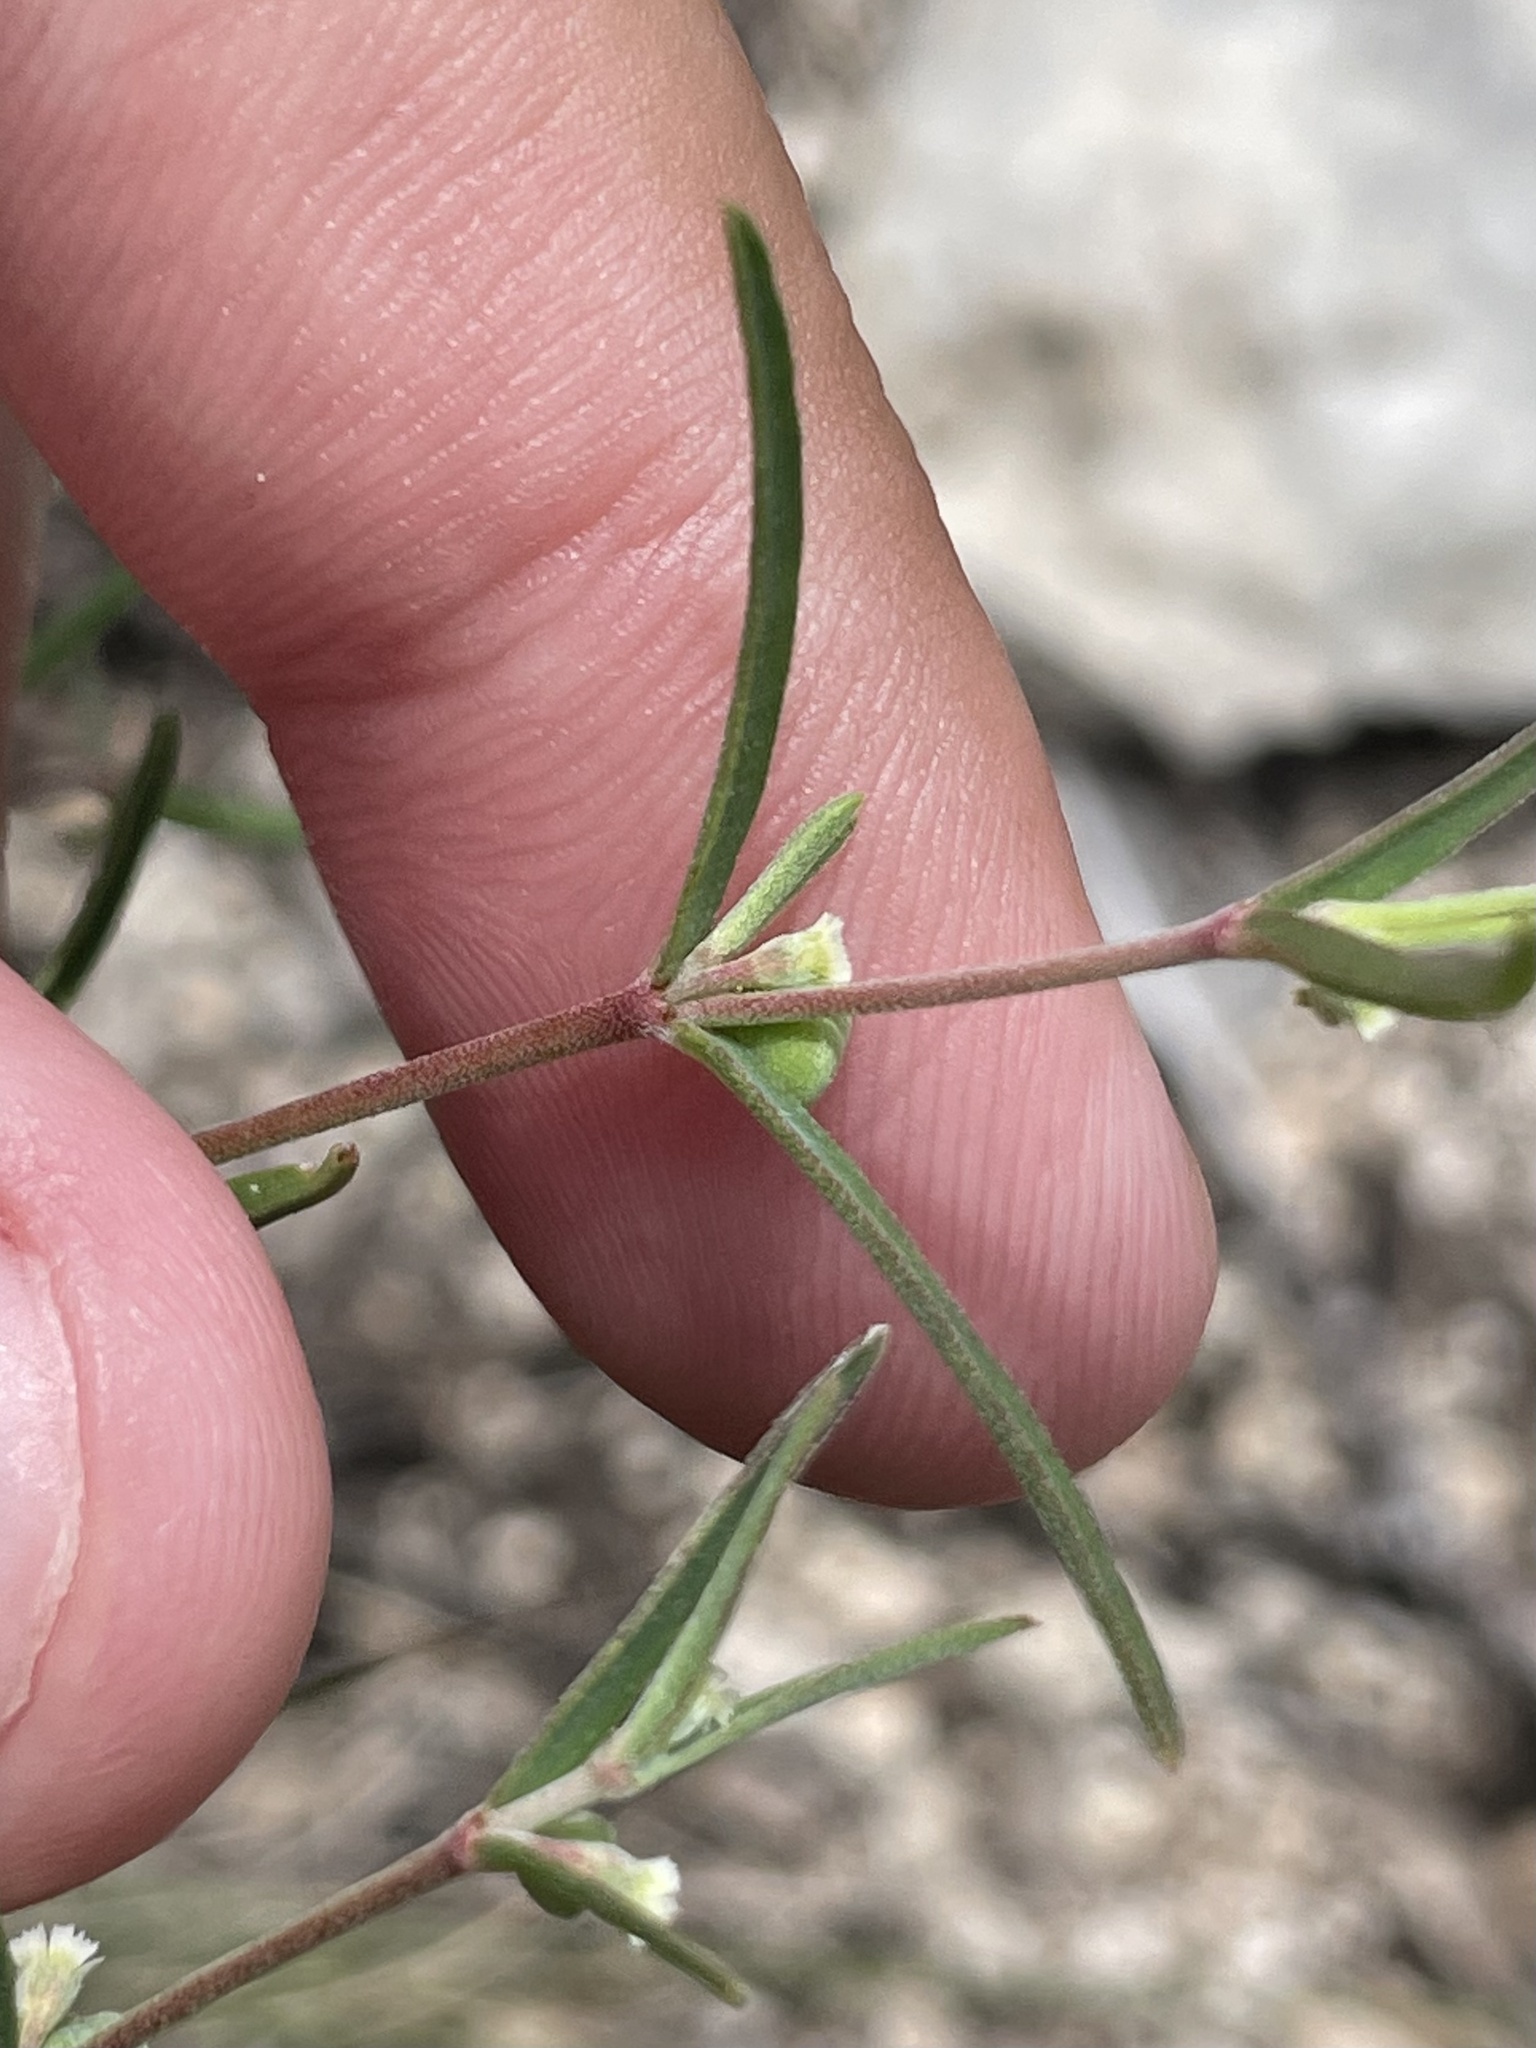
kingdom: Plantae
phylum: Tracheophyta
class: Magnoliopsida
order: Malpighiales
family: Euphorbiaceae
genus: Euphorbia
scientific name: Euphorbia angusta
